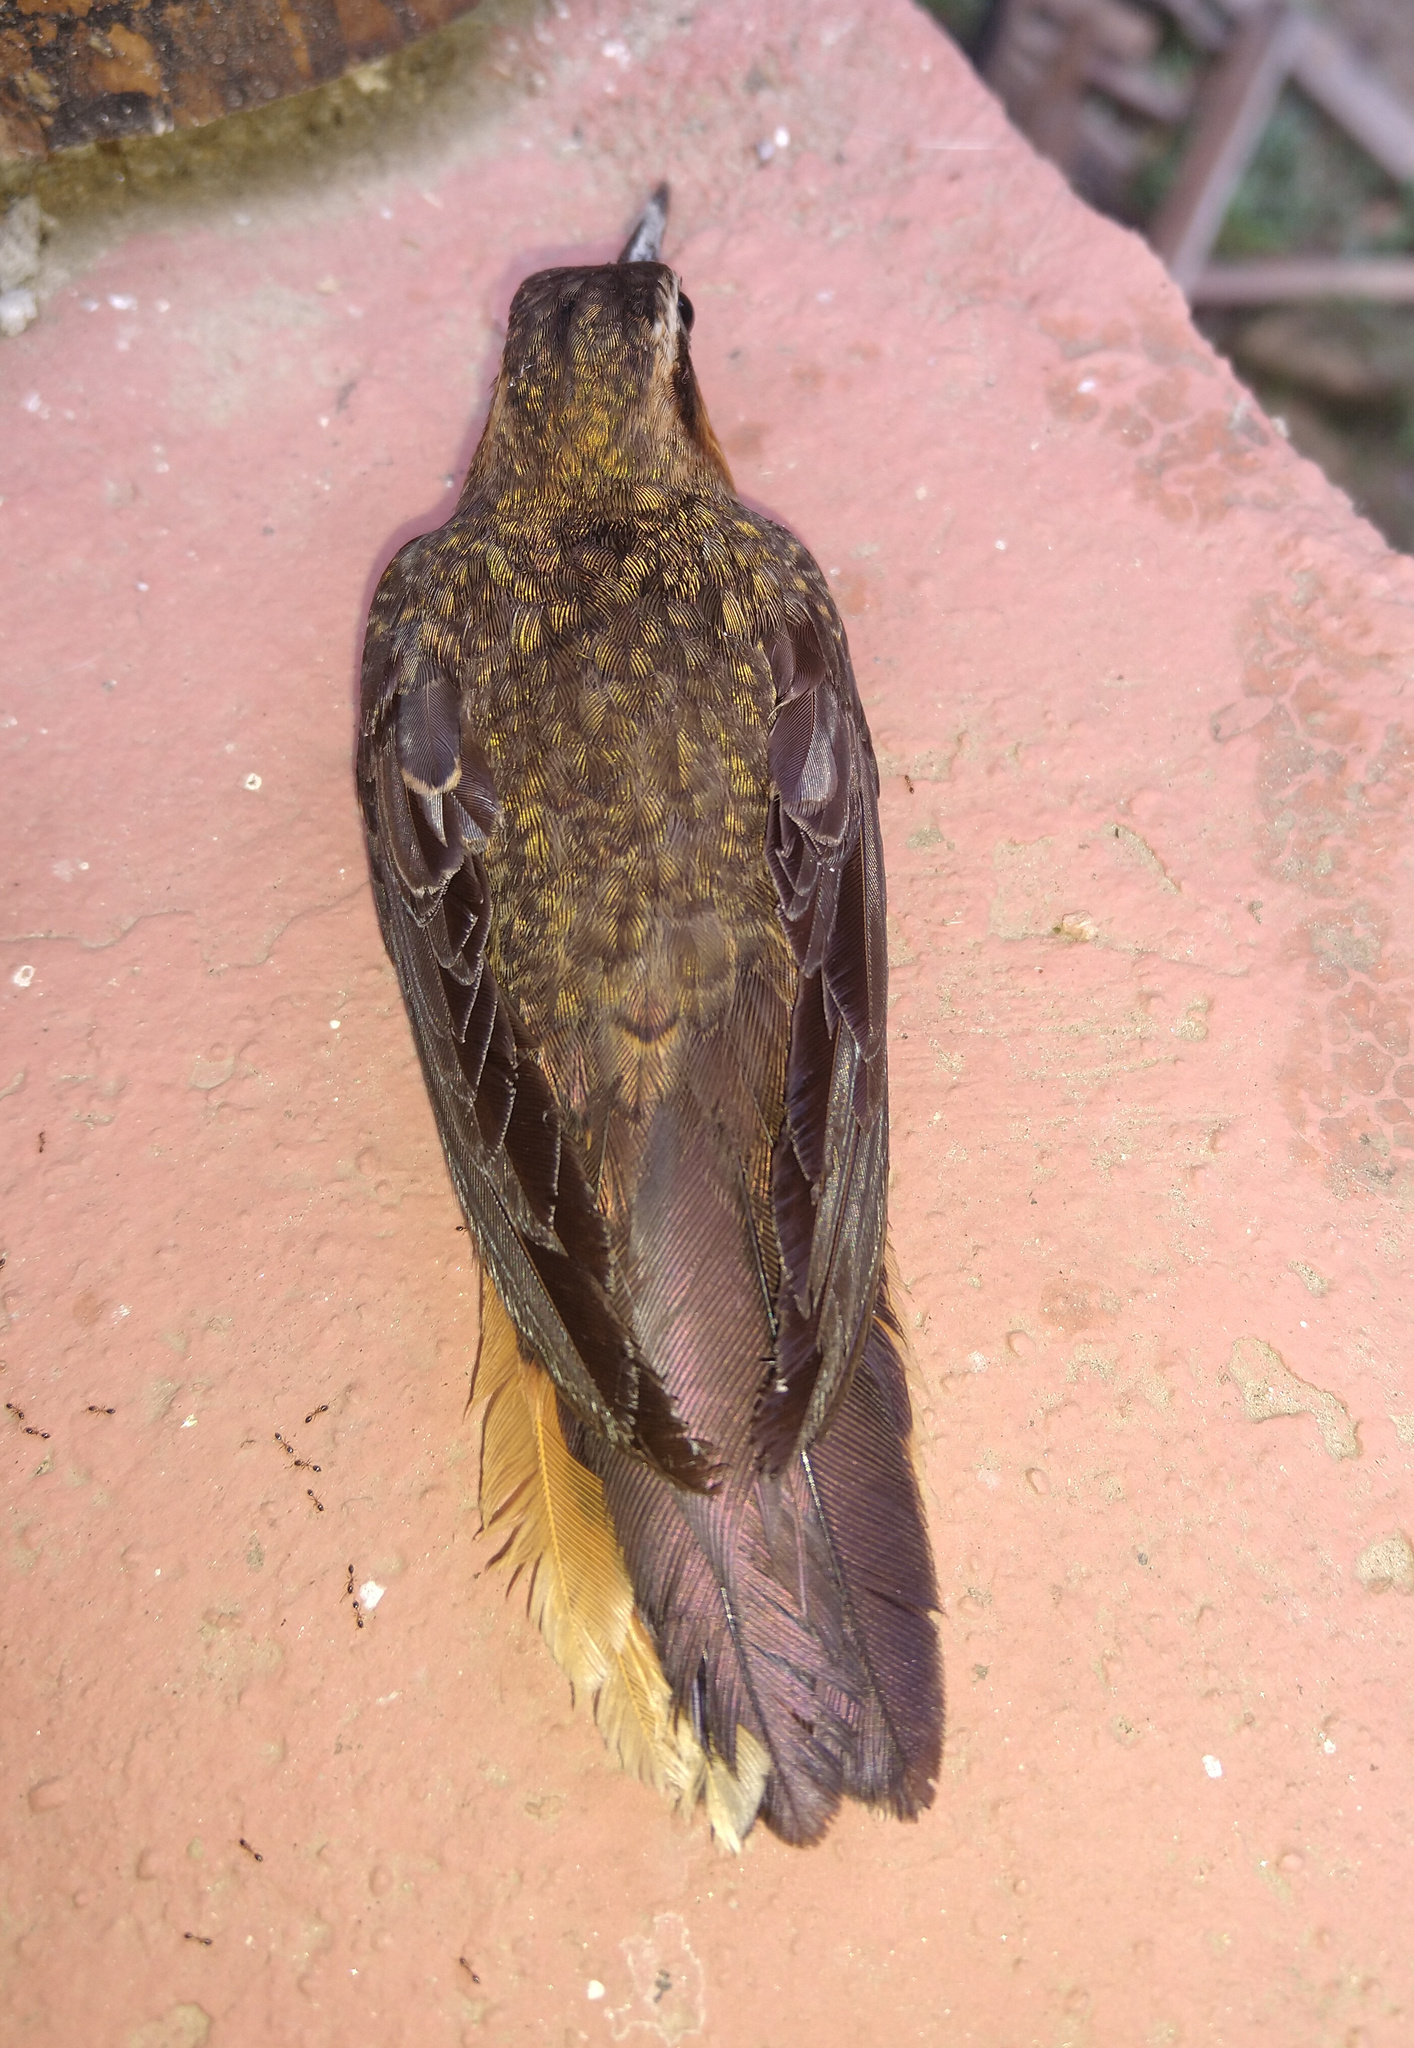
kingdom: Animalia
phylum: Chordata
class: Aves
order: Apodiformes
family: Trochilidae
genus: Ramphodon
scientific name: Ramphodon naevius
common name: Saw-billed hermit
